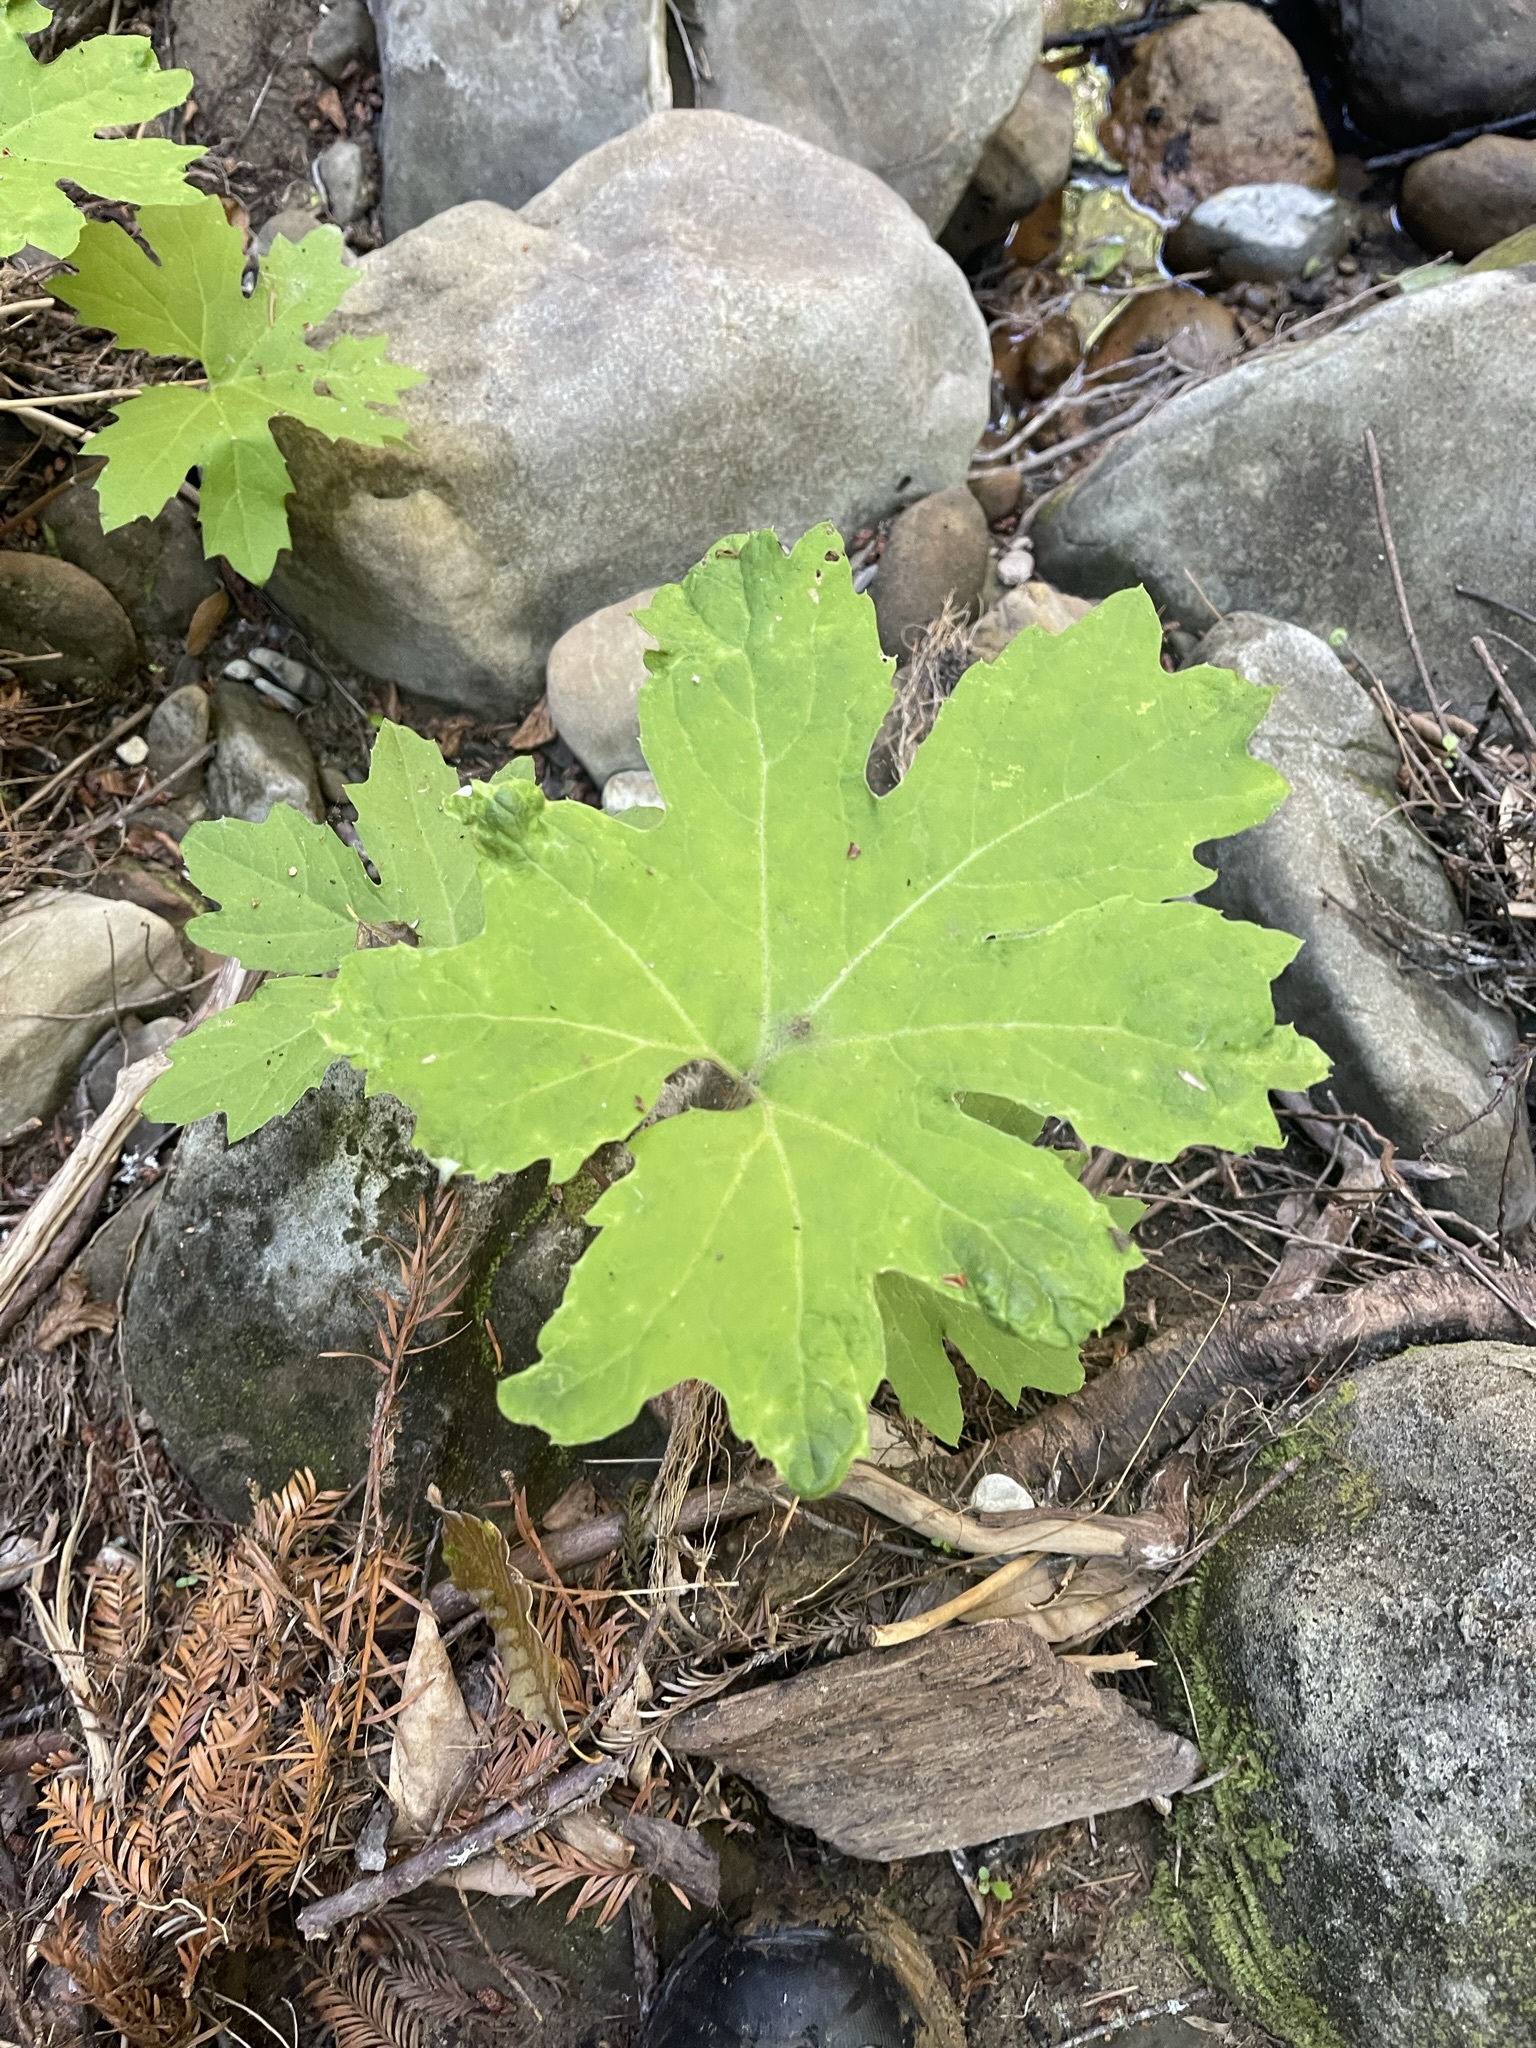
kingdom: Plantae
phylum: Tracheophyta
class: Magnoliopsida
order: Asterales
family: Asteraceae
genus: Petasites
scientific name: Petasites frigidus
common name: Arctic butterbur
